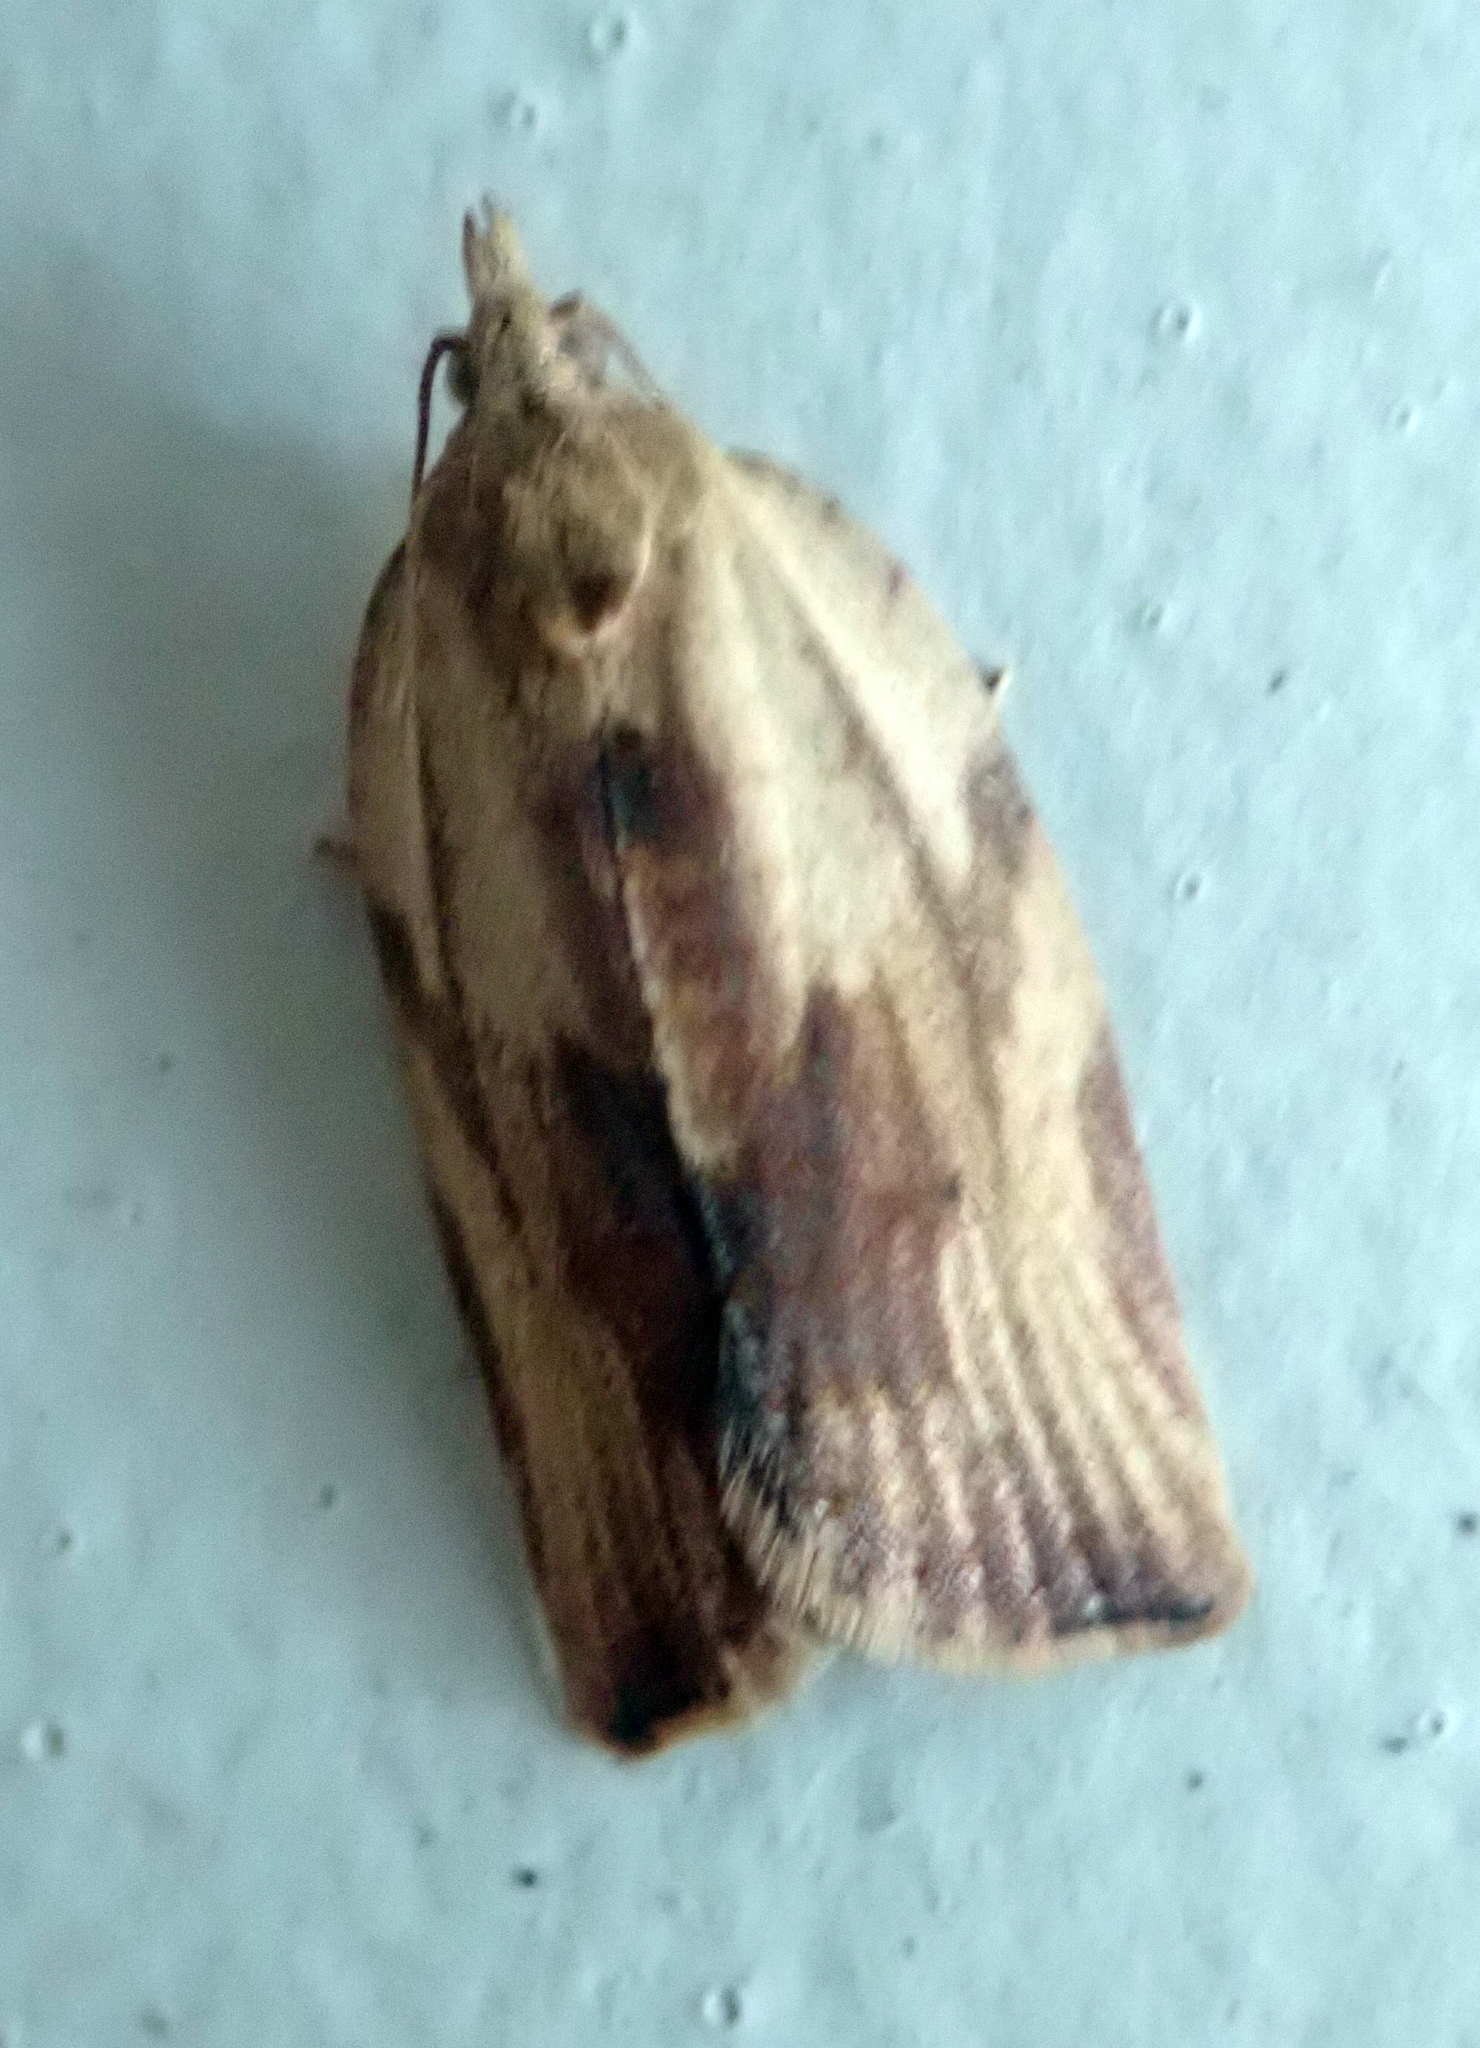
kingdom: Animalia
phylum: Arthropoda
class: Insecta
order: Lepidoptera
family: Tortricidae
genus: Epiphyas
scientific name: Epiphyas postvittana
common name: Light brown apple moth
